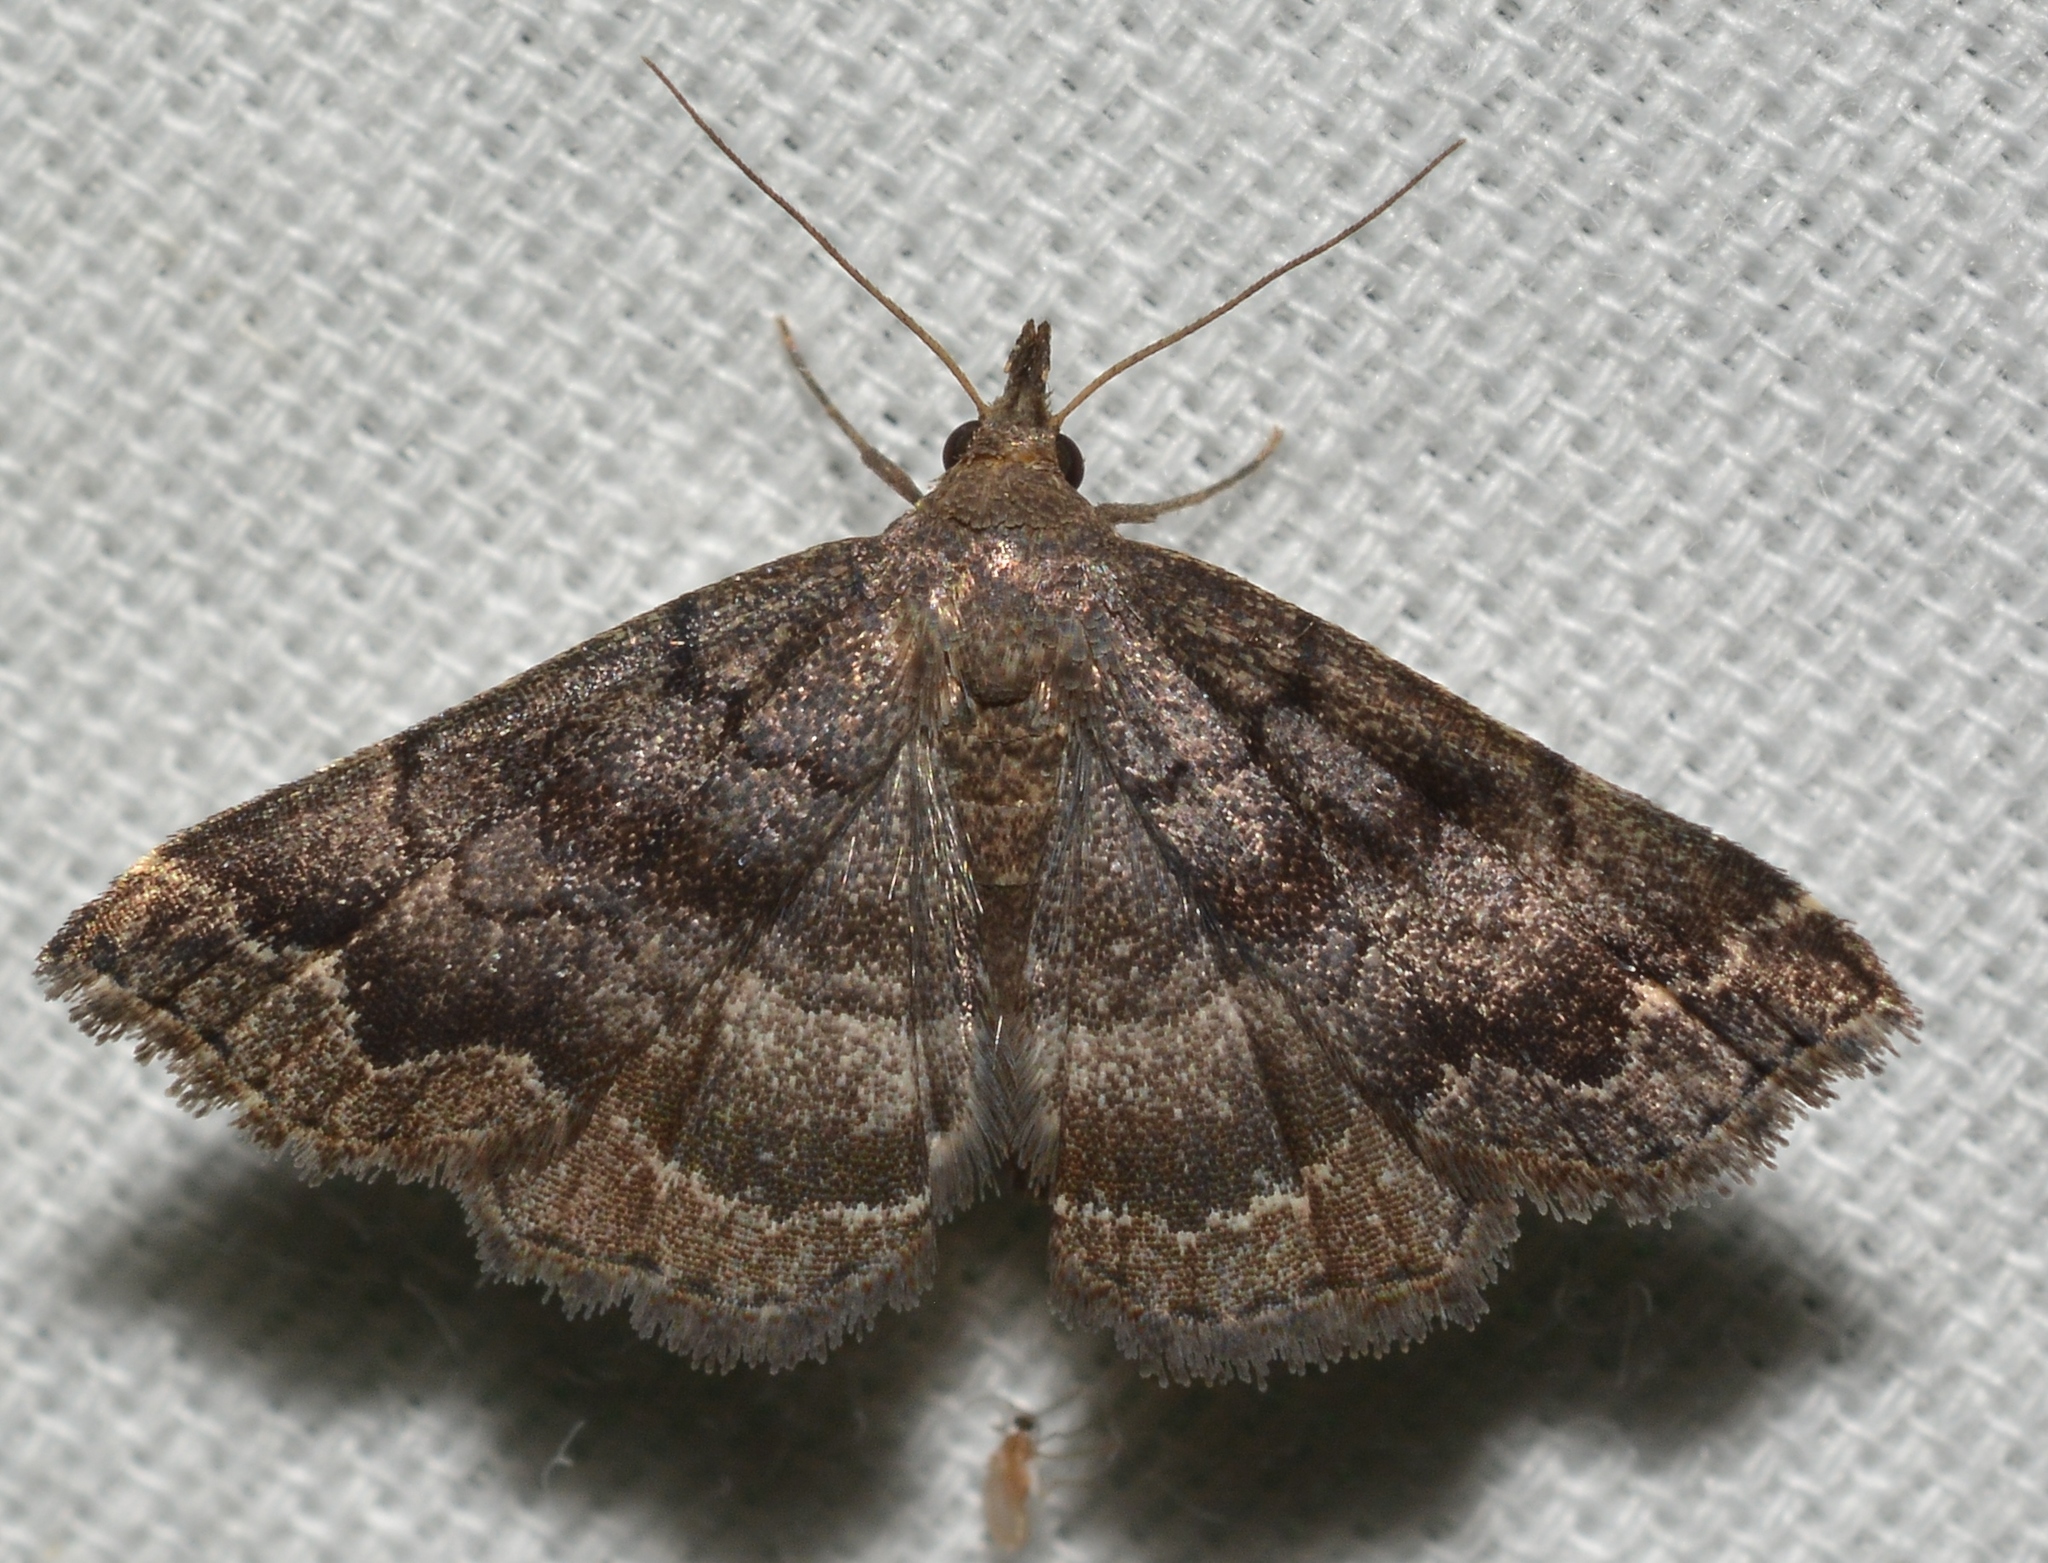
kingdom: Animalia
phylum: Arthropoda
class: Insecta
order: Lepidoptera
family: Erebidae
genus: Phalaenostola
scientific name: Phalaenostola larentioides
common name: Black-banded owlet
